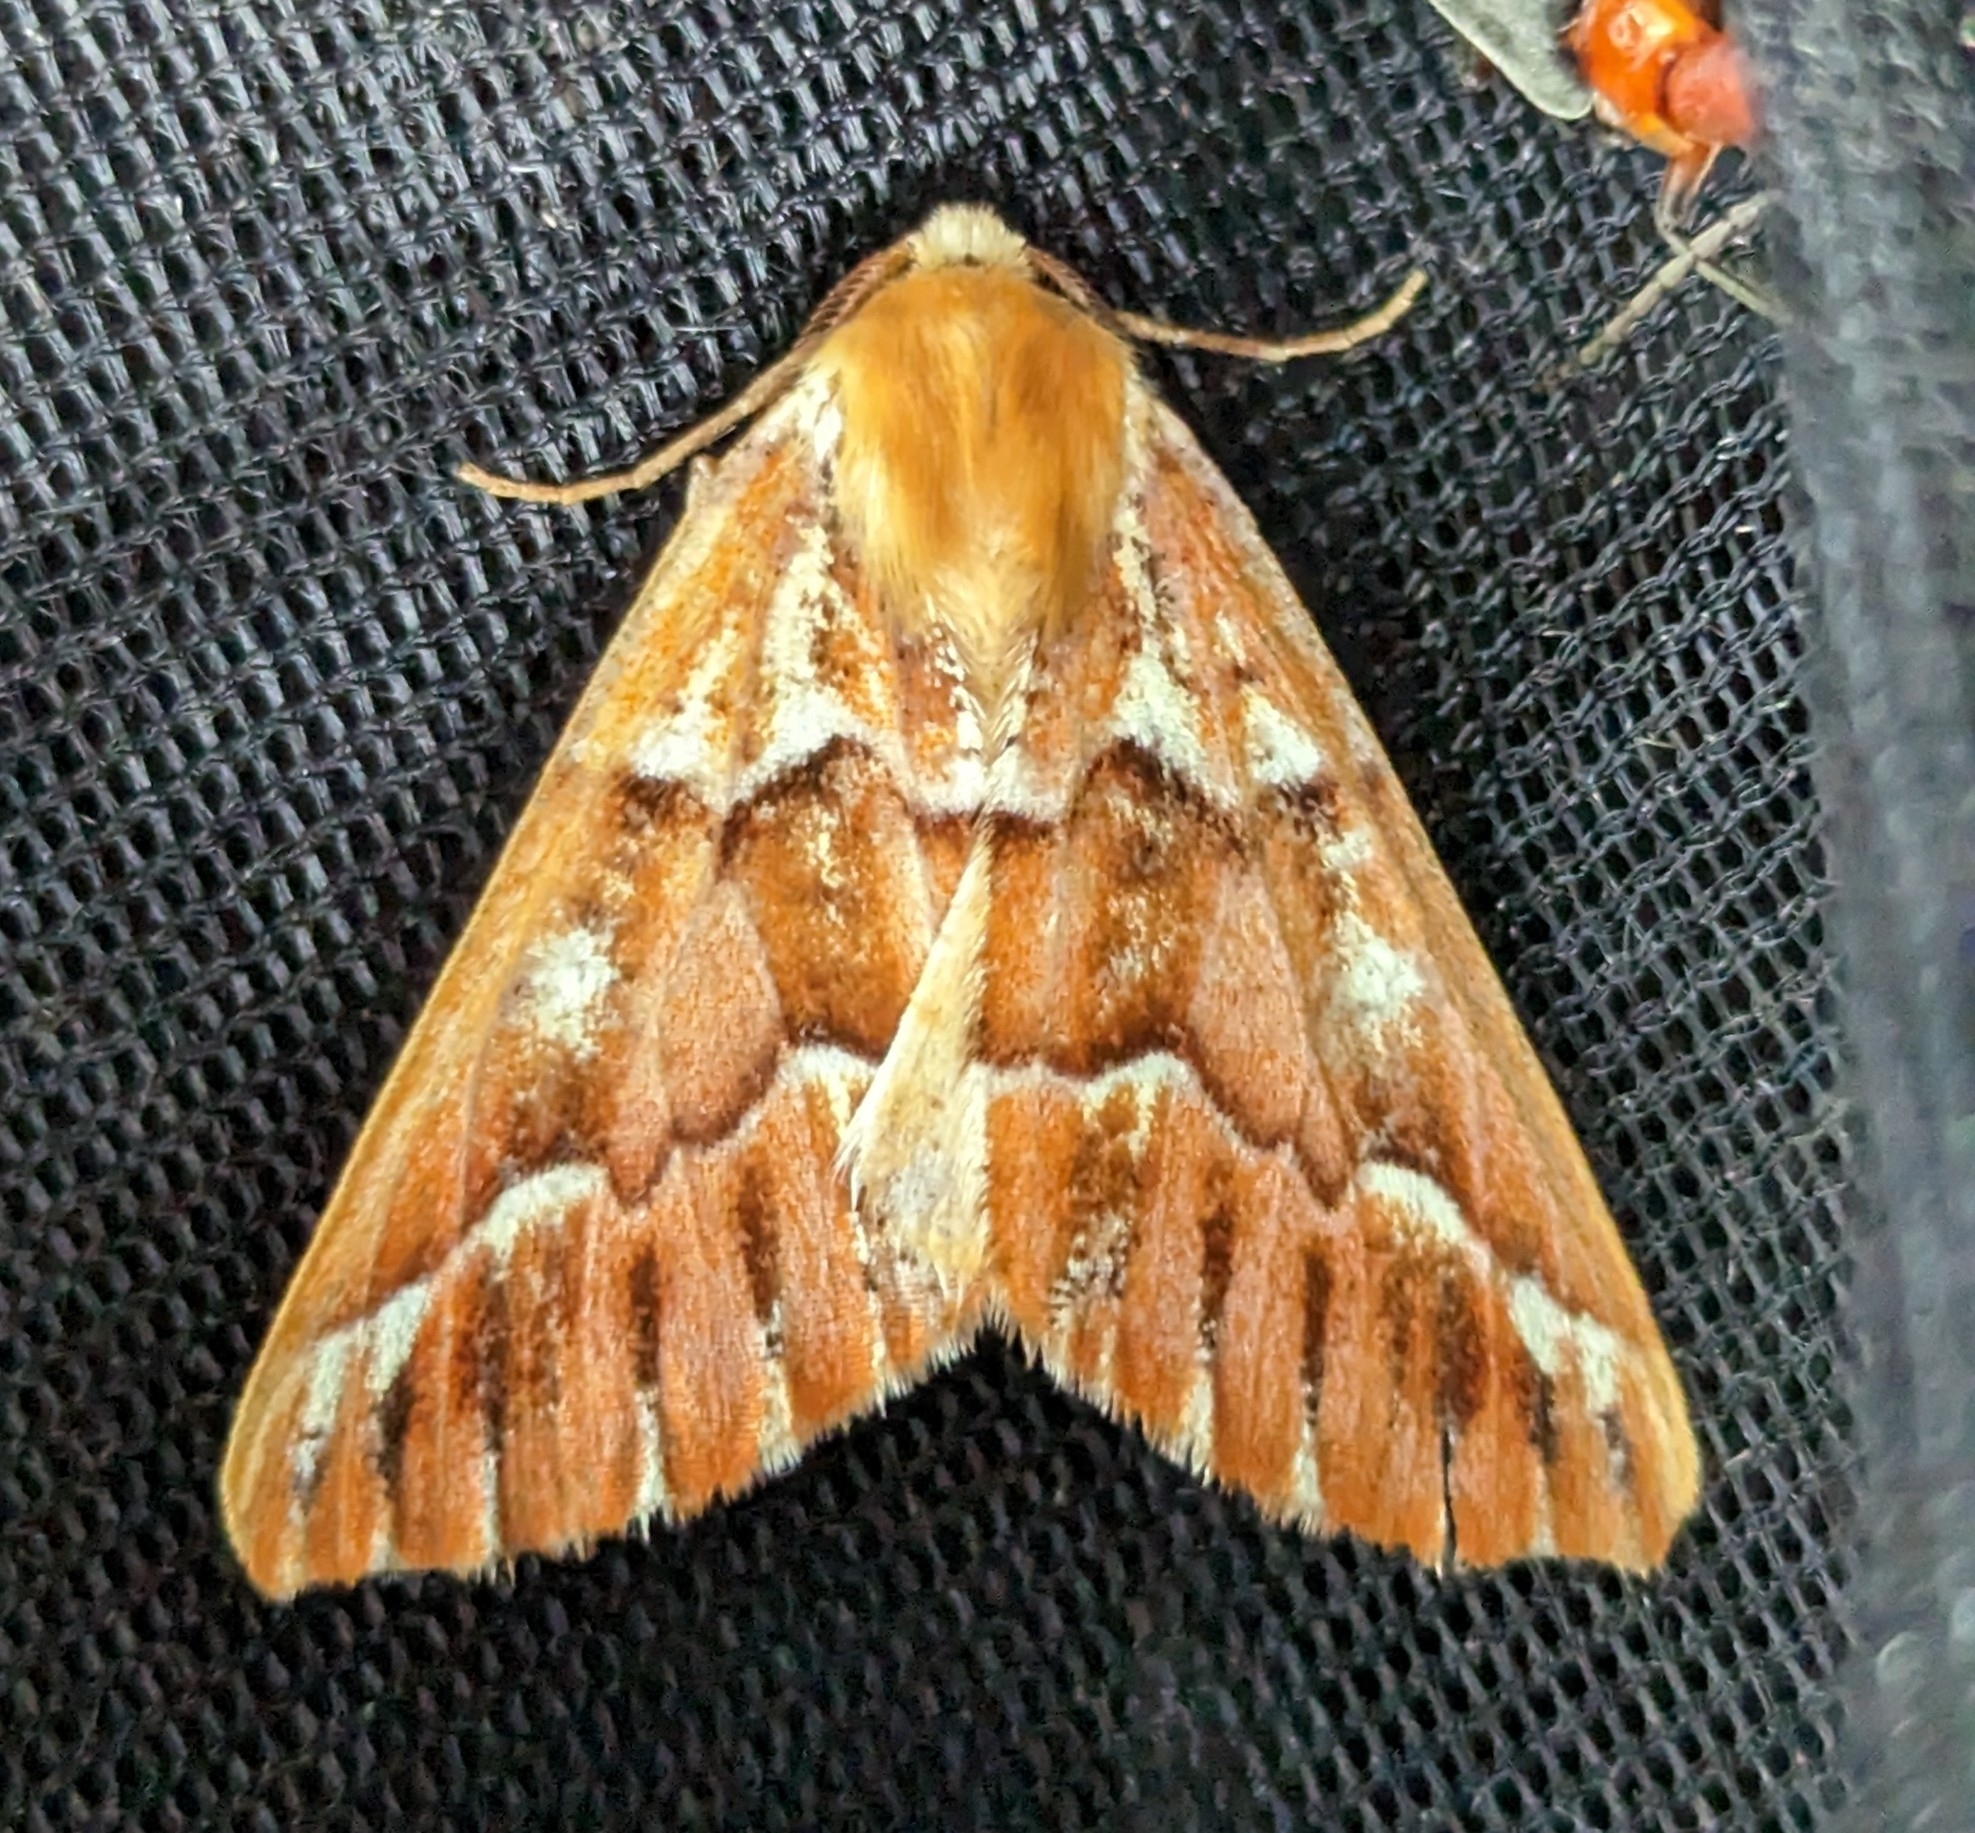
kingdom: Animalia
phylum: Arthropoda
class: Insecta
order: Lepidoptera
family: Geometridae
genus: Caripeta
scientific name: Caripeta aequaliaria
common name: Red girdle moth
